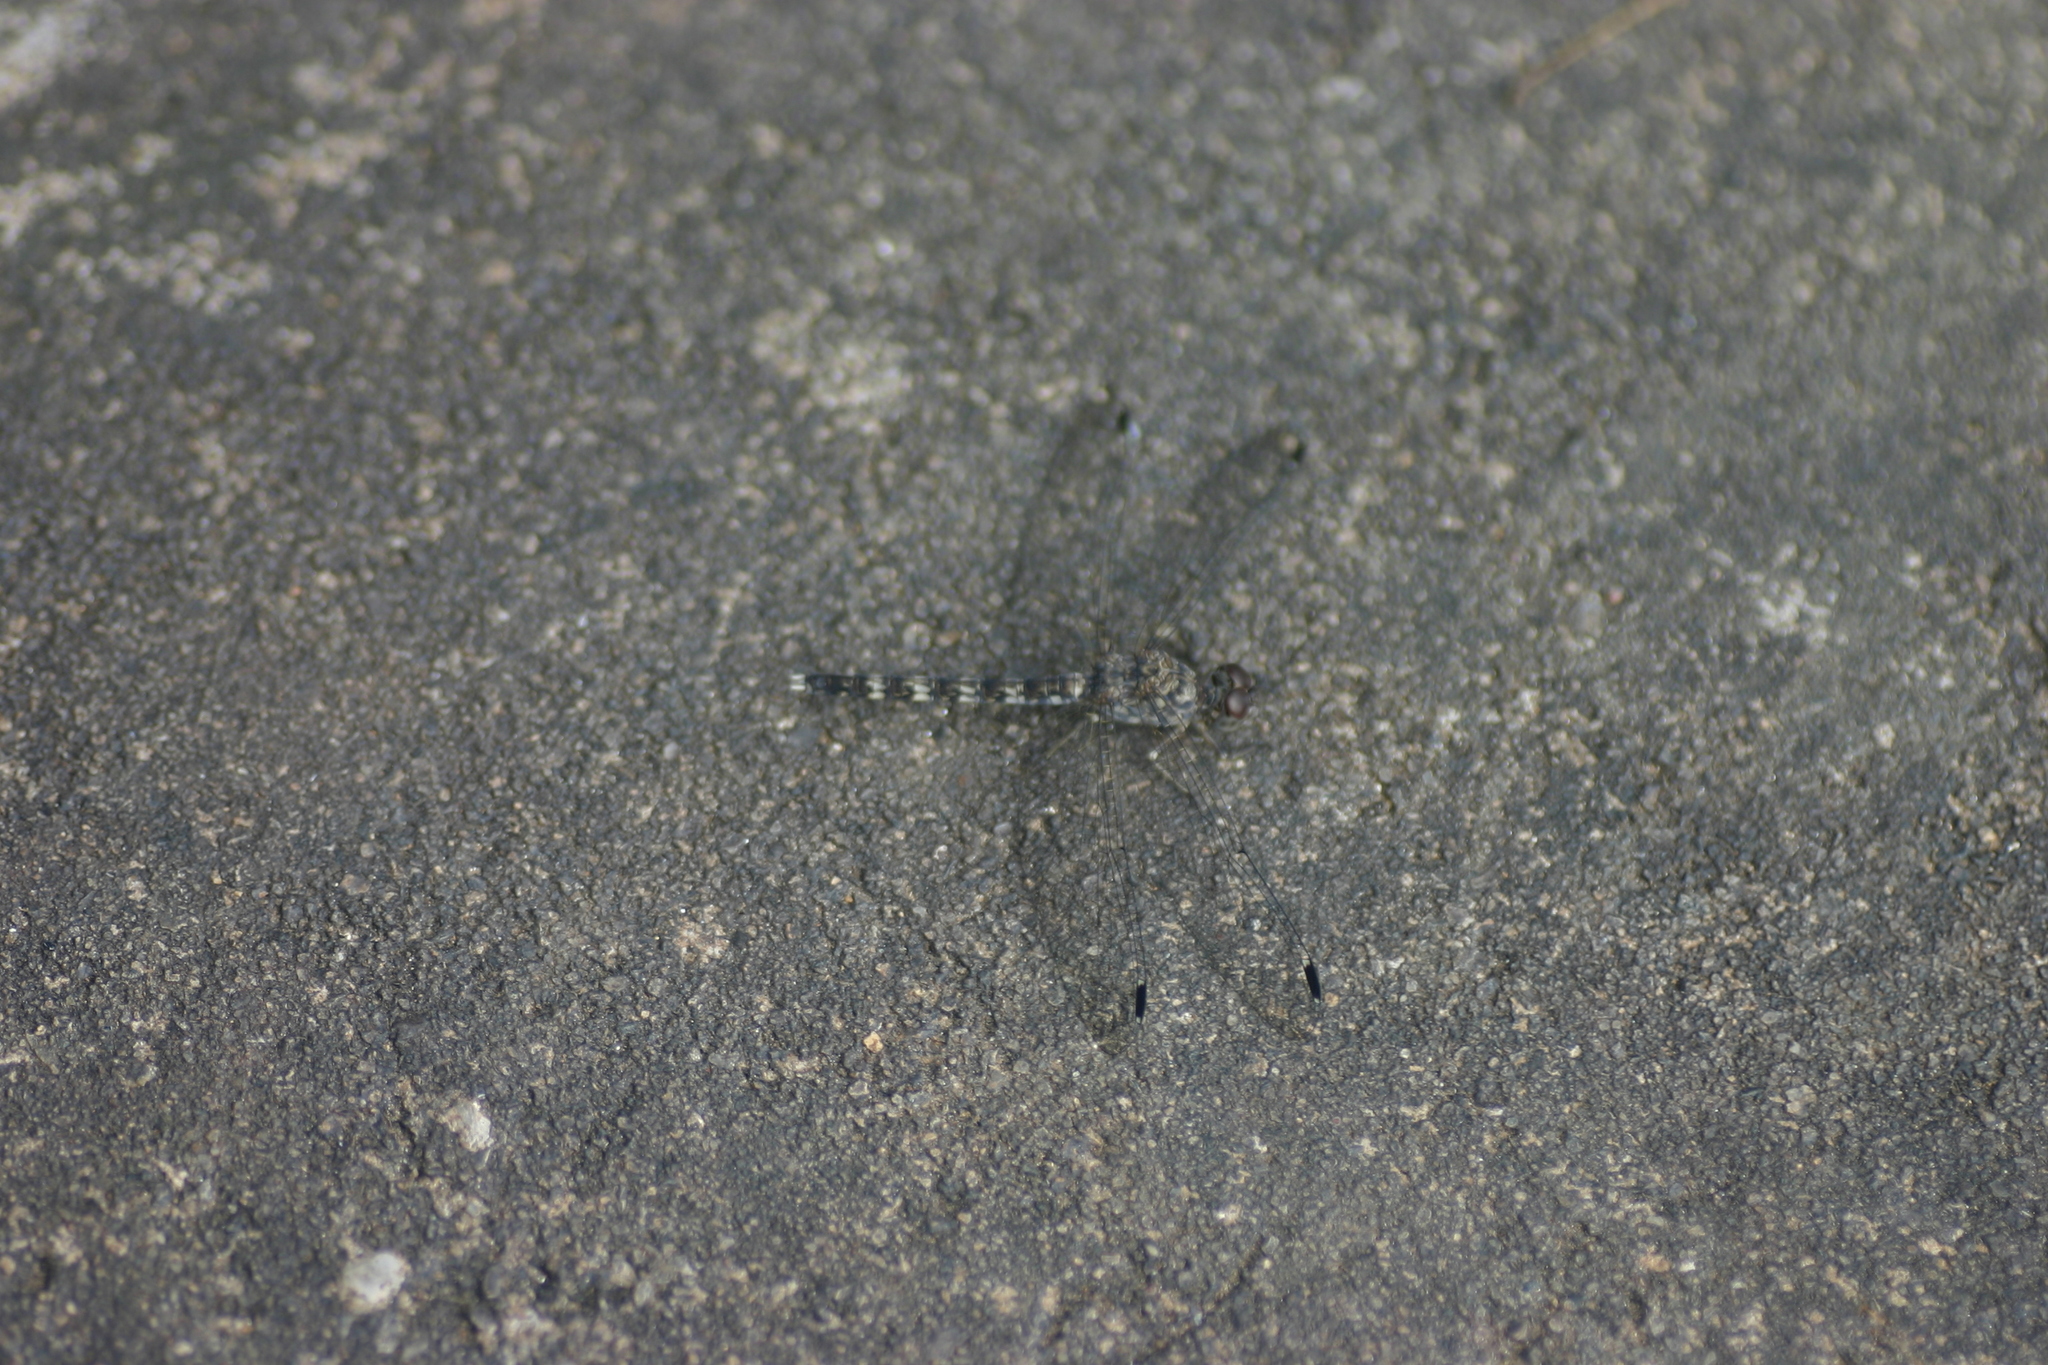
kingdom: Animalia
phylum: Arthropoda
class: Insecta
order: Odonata
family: Libellulidae
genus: Bradinopyga
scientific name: Bradinopyga geminata
